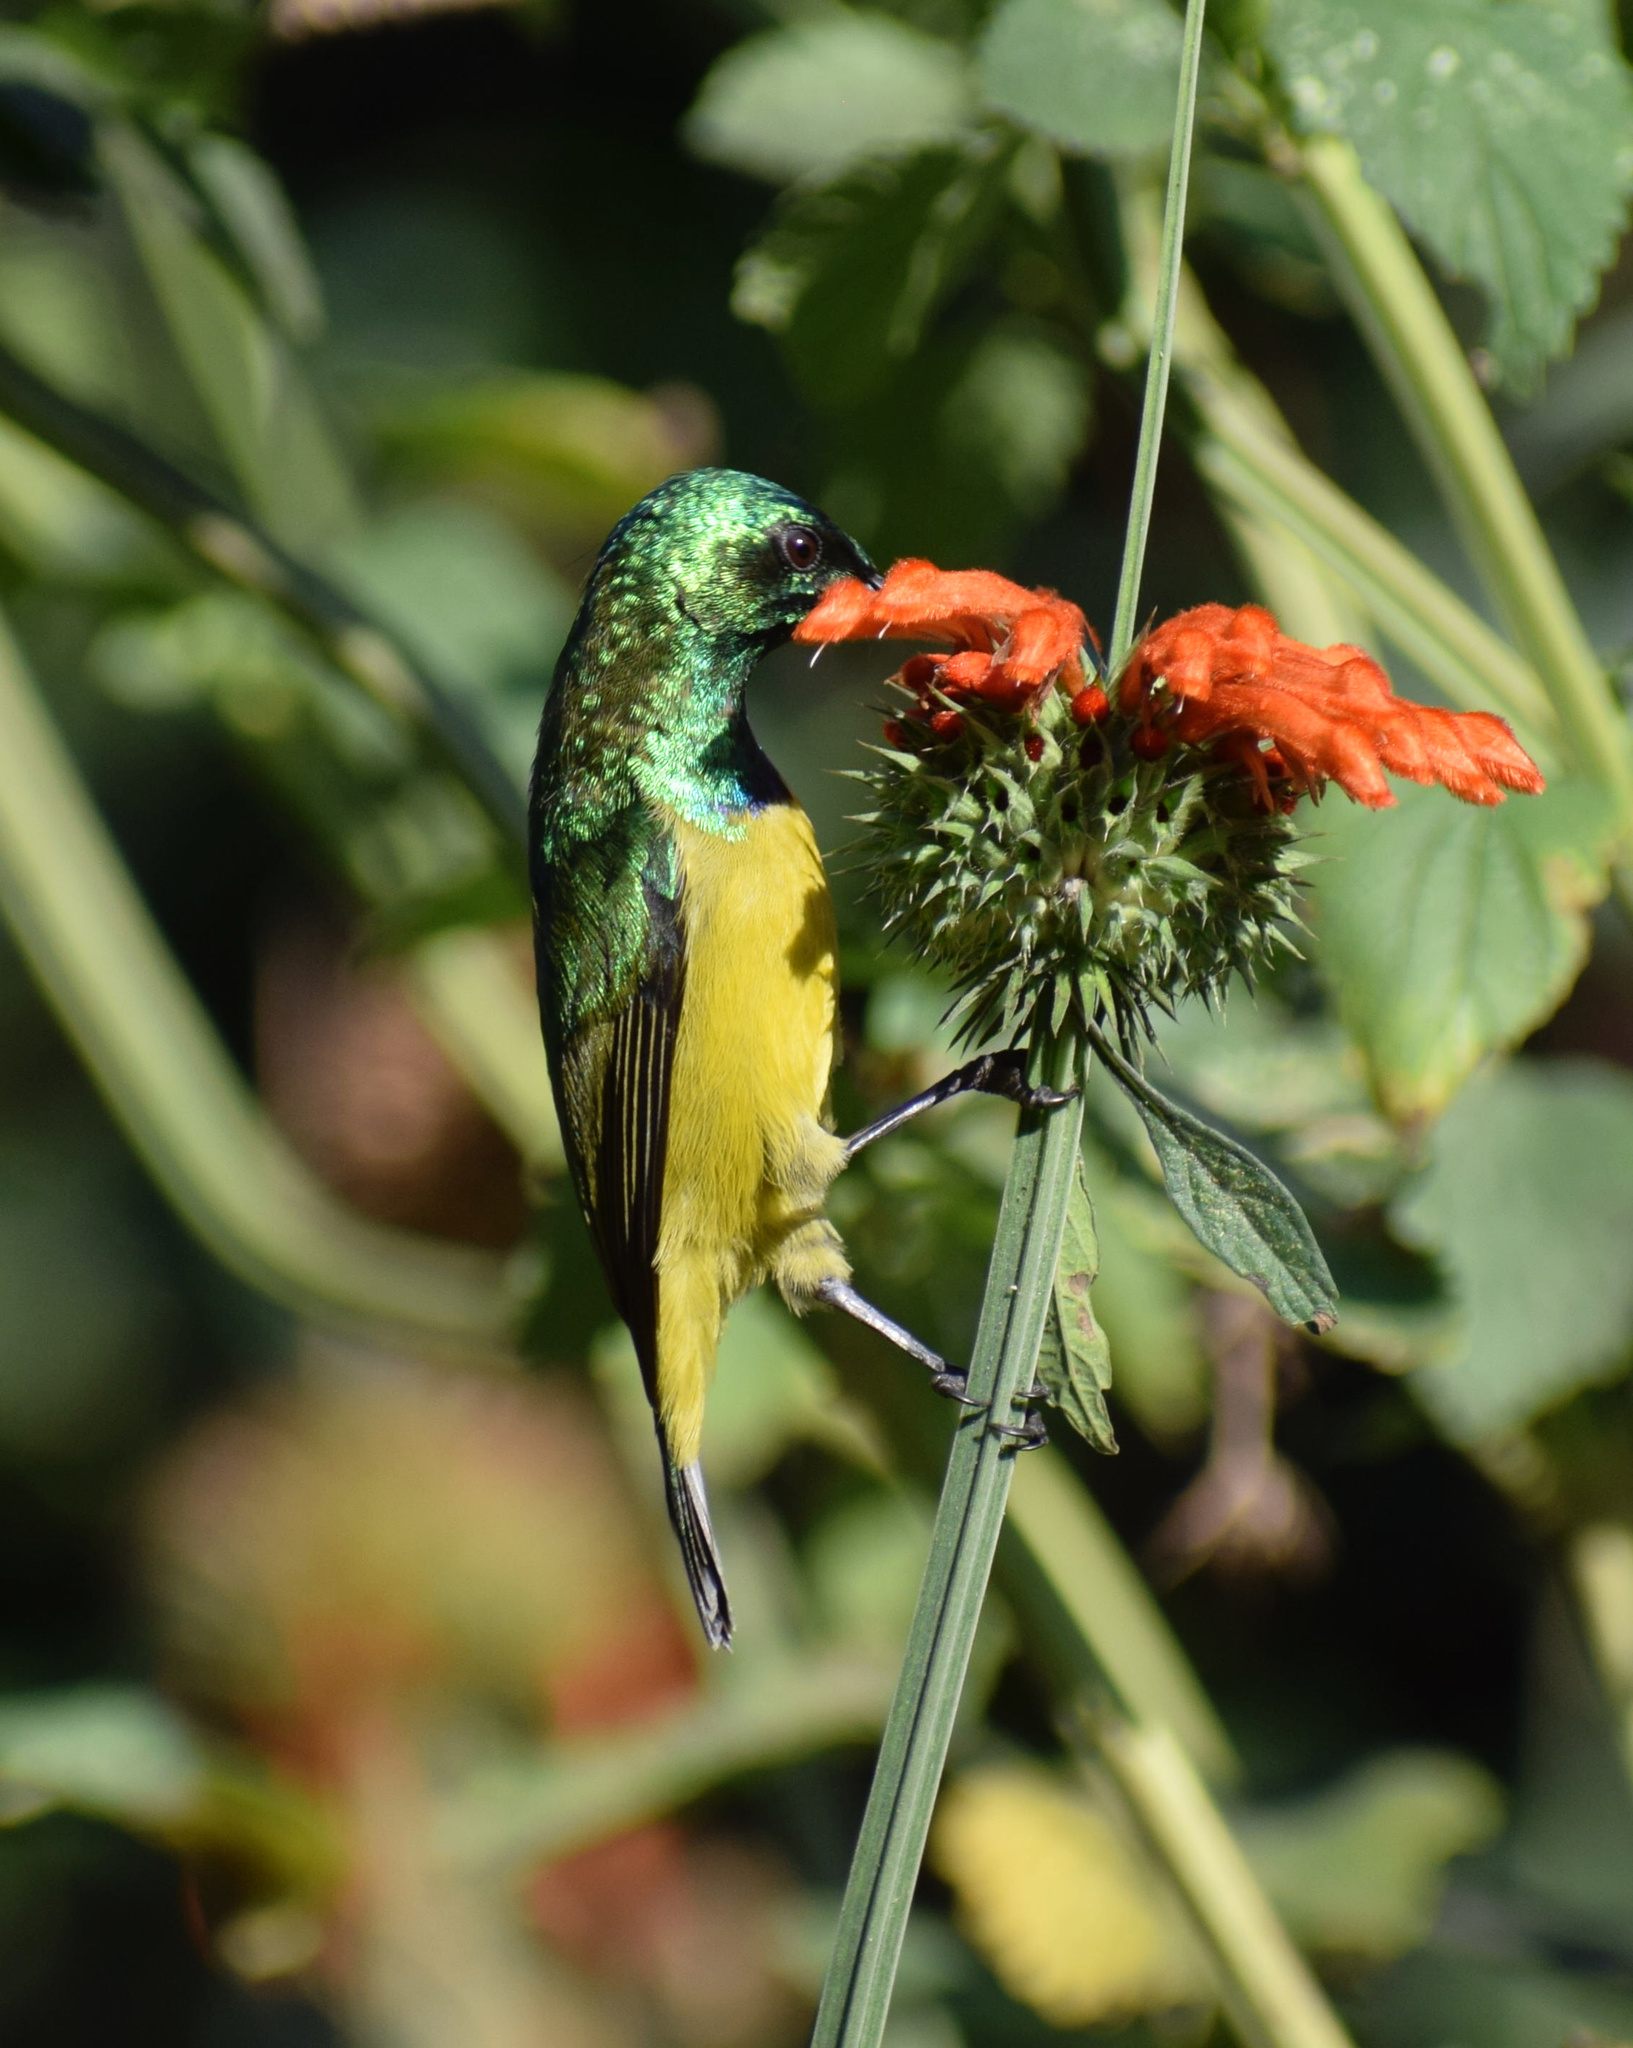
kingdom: Animalia
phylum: Chordata
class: Aves
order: Passeriformes
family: Nectariniidae
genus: Hedydipna
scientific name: Hedydipna collaris
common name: Collared sunbird
